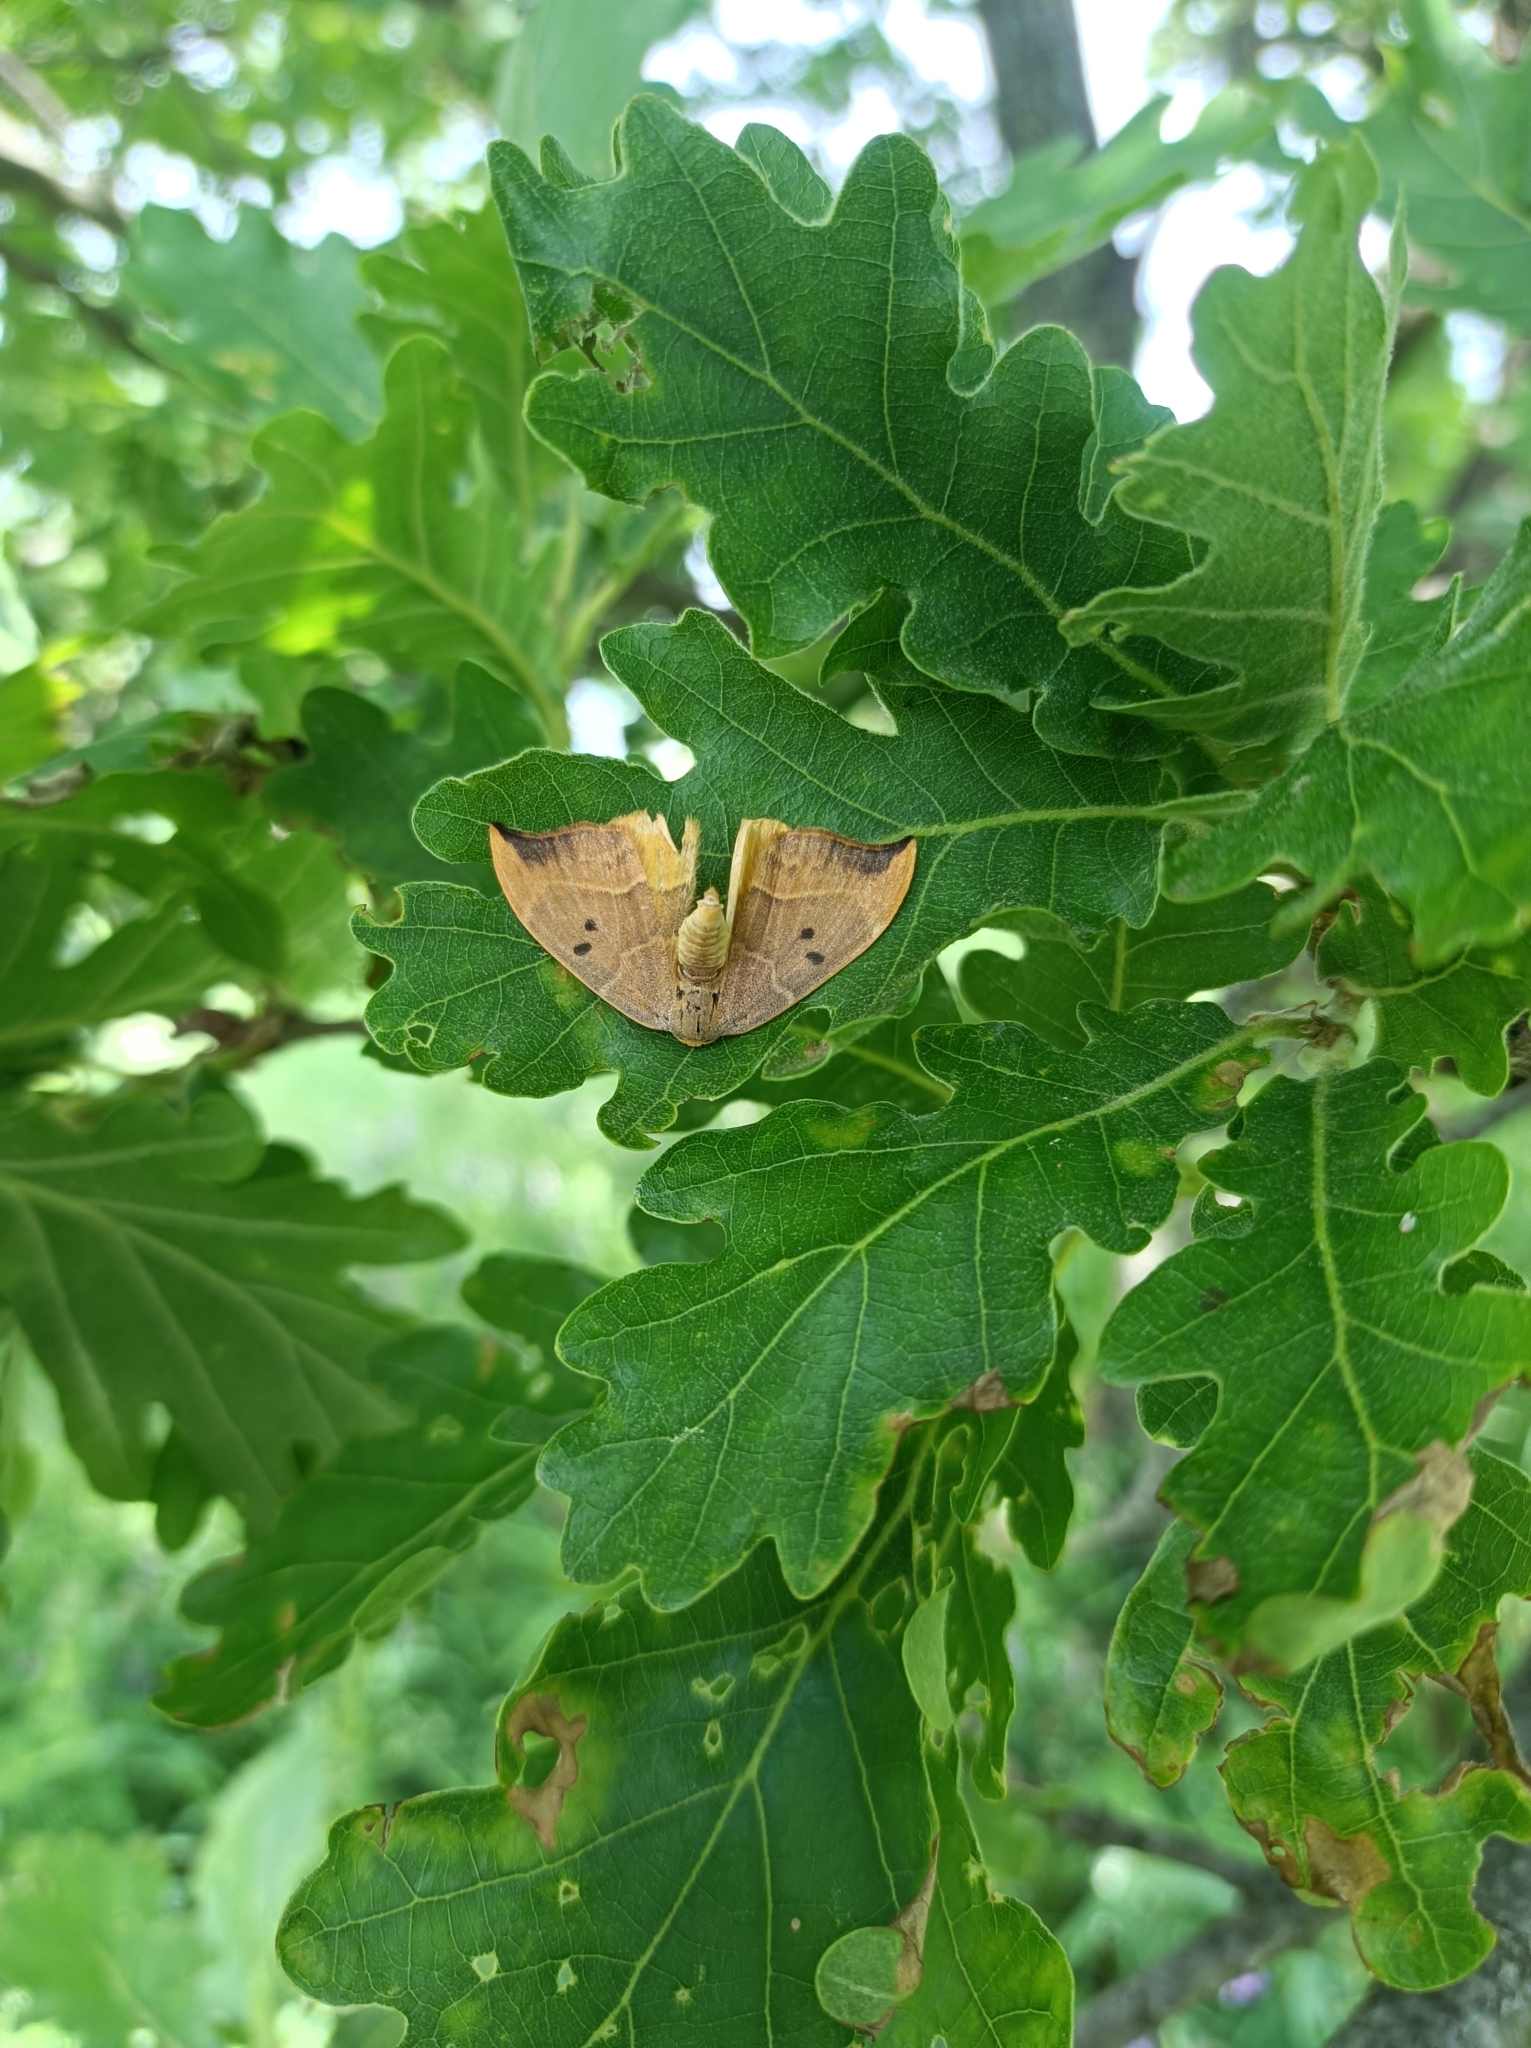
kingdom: Animalia
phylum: Arthropoda
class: Insecta
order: Lepidoptera
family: Drepanidae
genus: Watsonalla
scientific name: Watsonalla binaria
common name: Oak hook-tip
